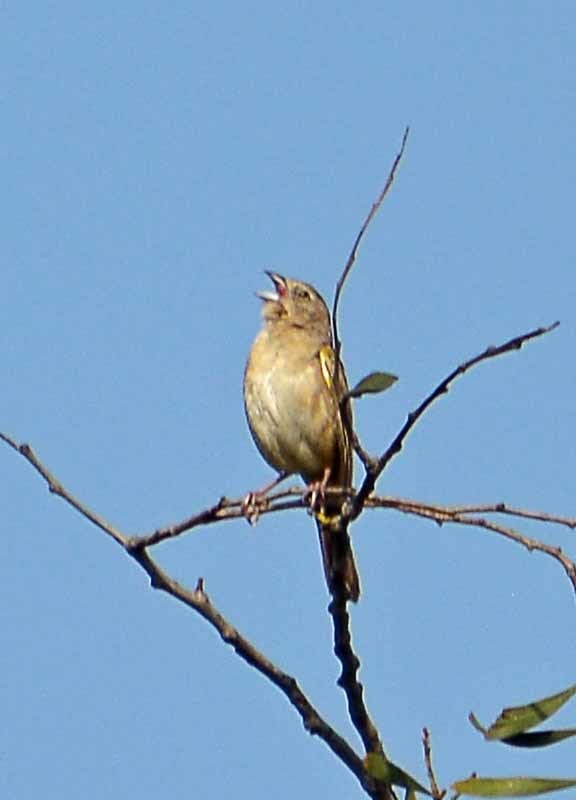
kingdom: Animalia
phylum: Chordata
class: Aves
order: Passeriformes
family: Passerellidae
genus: Aimophila
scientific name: Aimophila ruficeps
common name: Rufous-crowned sparrow
